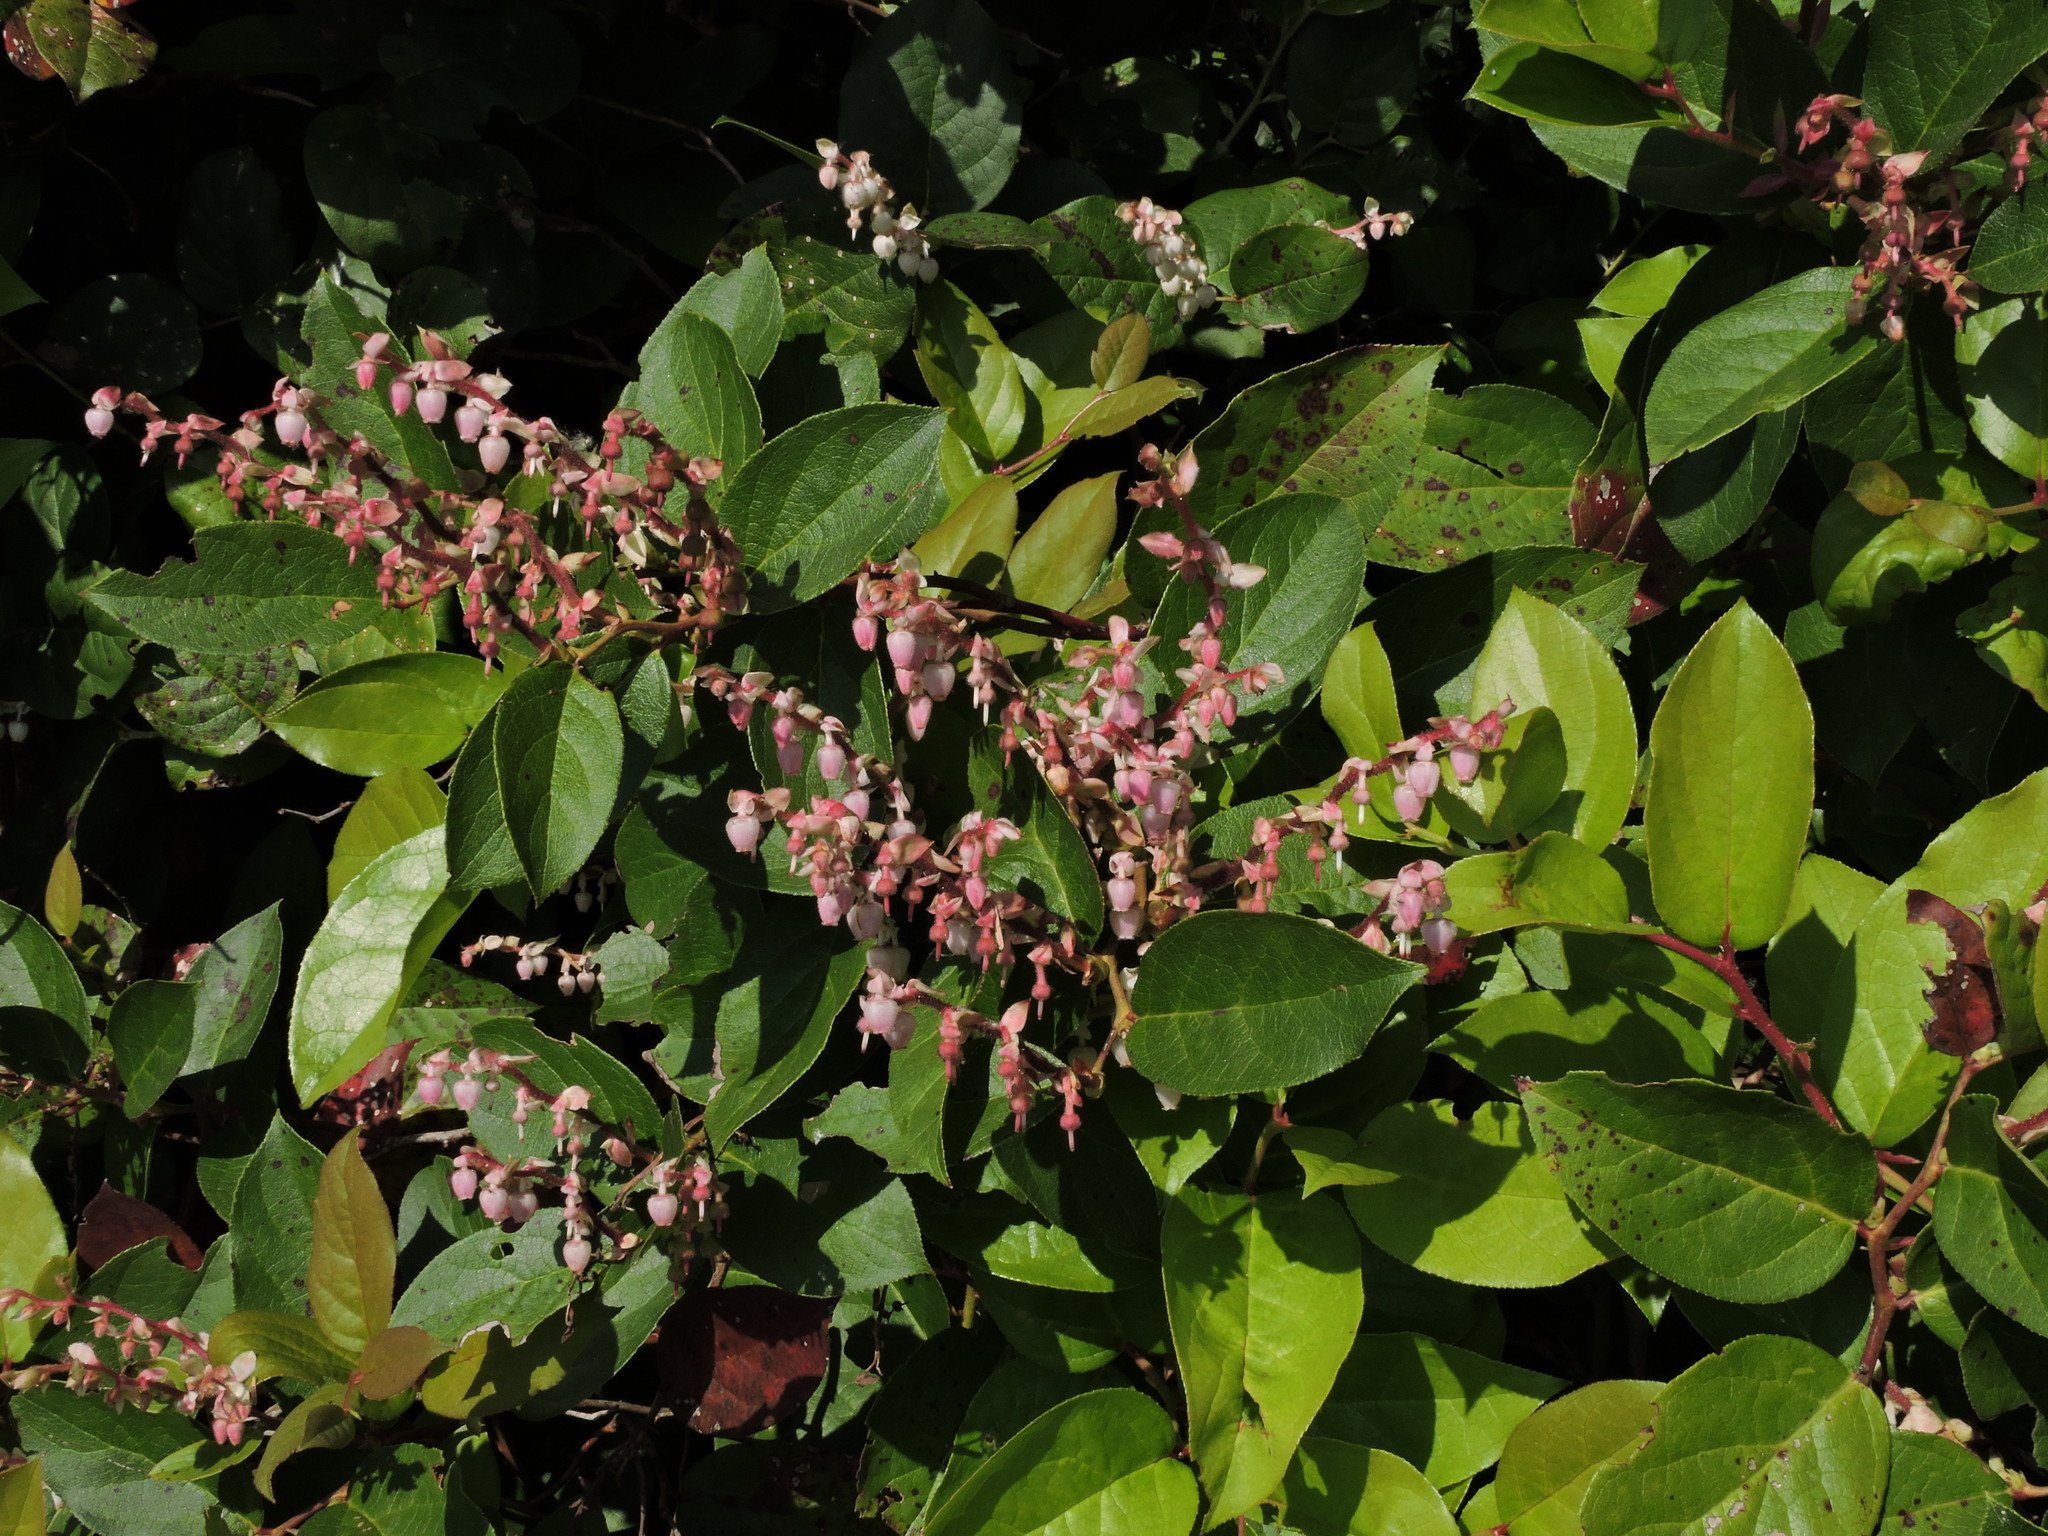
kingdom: Plantae
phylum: Tracheophyta
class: Magnoliopsida
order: Ericales
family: Ericaceae
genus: Gaultheria
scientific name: Gaultheria shallon
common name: Shallon
